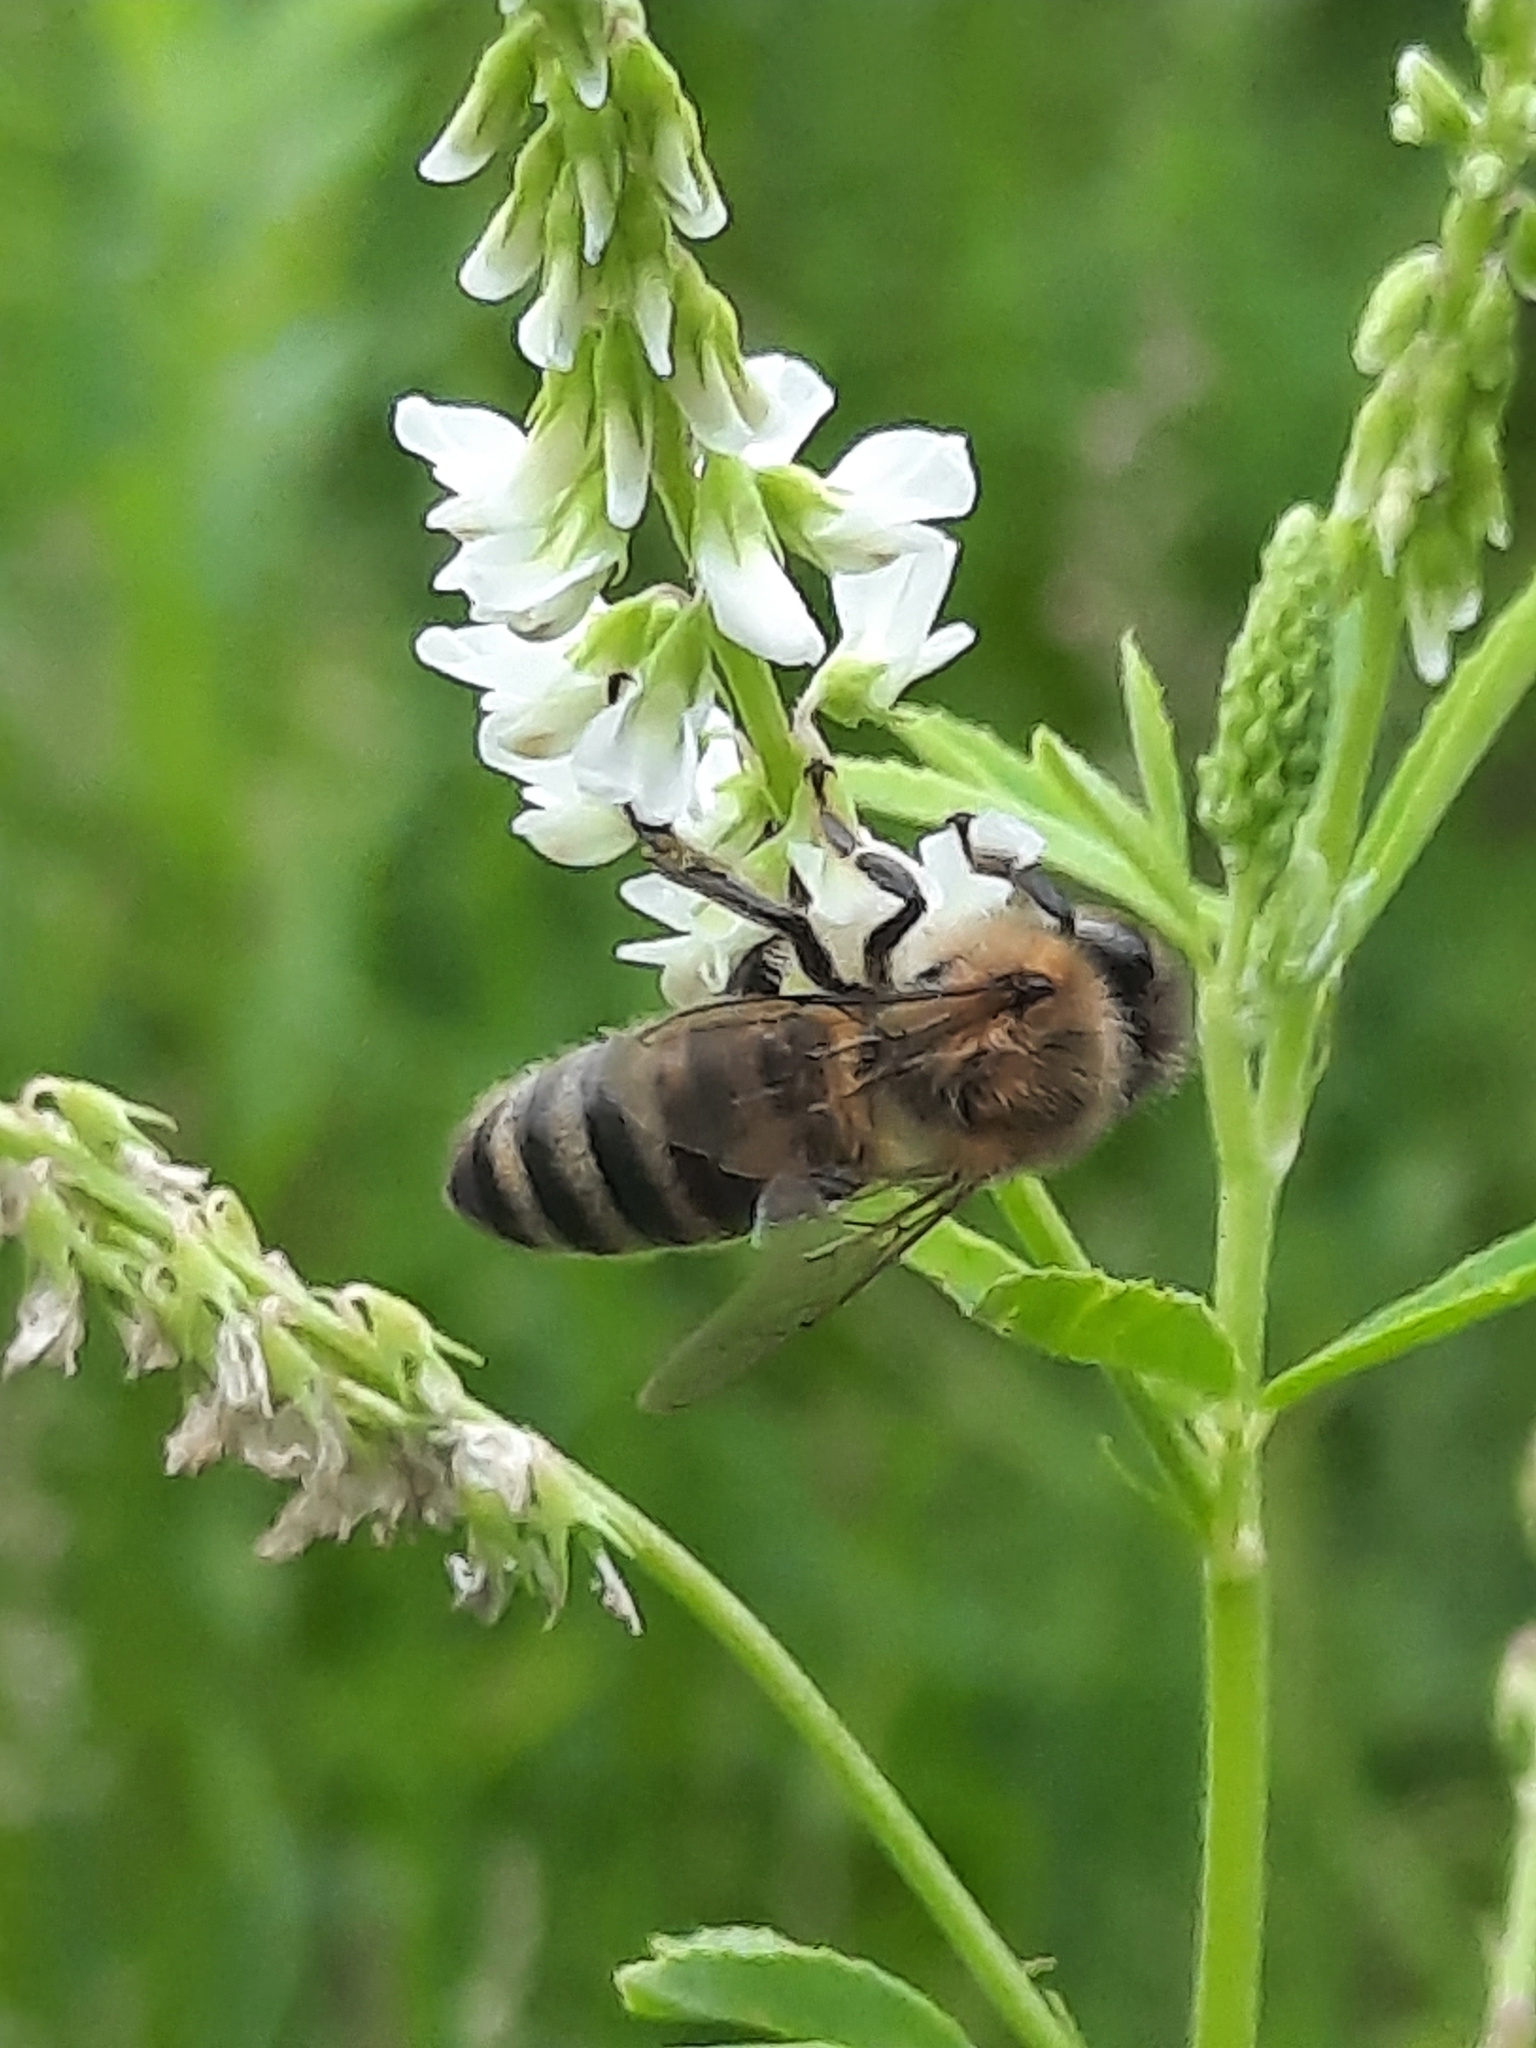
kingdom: Animalia
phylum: Arthropoda
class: Insecta
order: Hymenoptera
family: Apidae
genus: Apis
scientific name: Apis mellifera
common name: Honey bee
